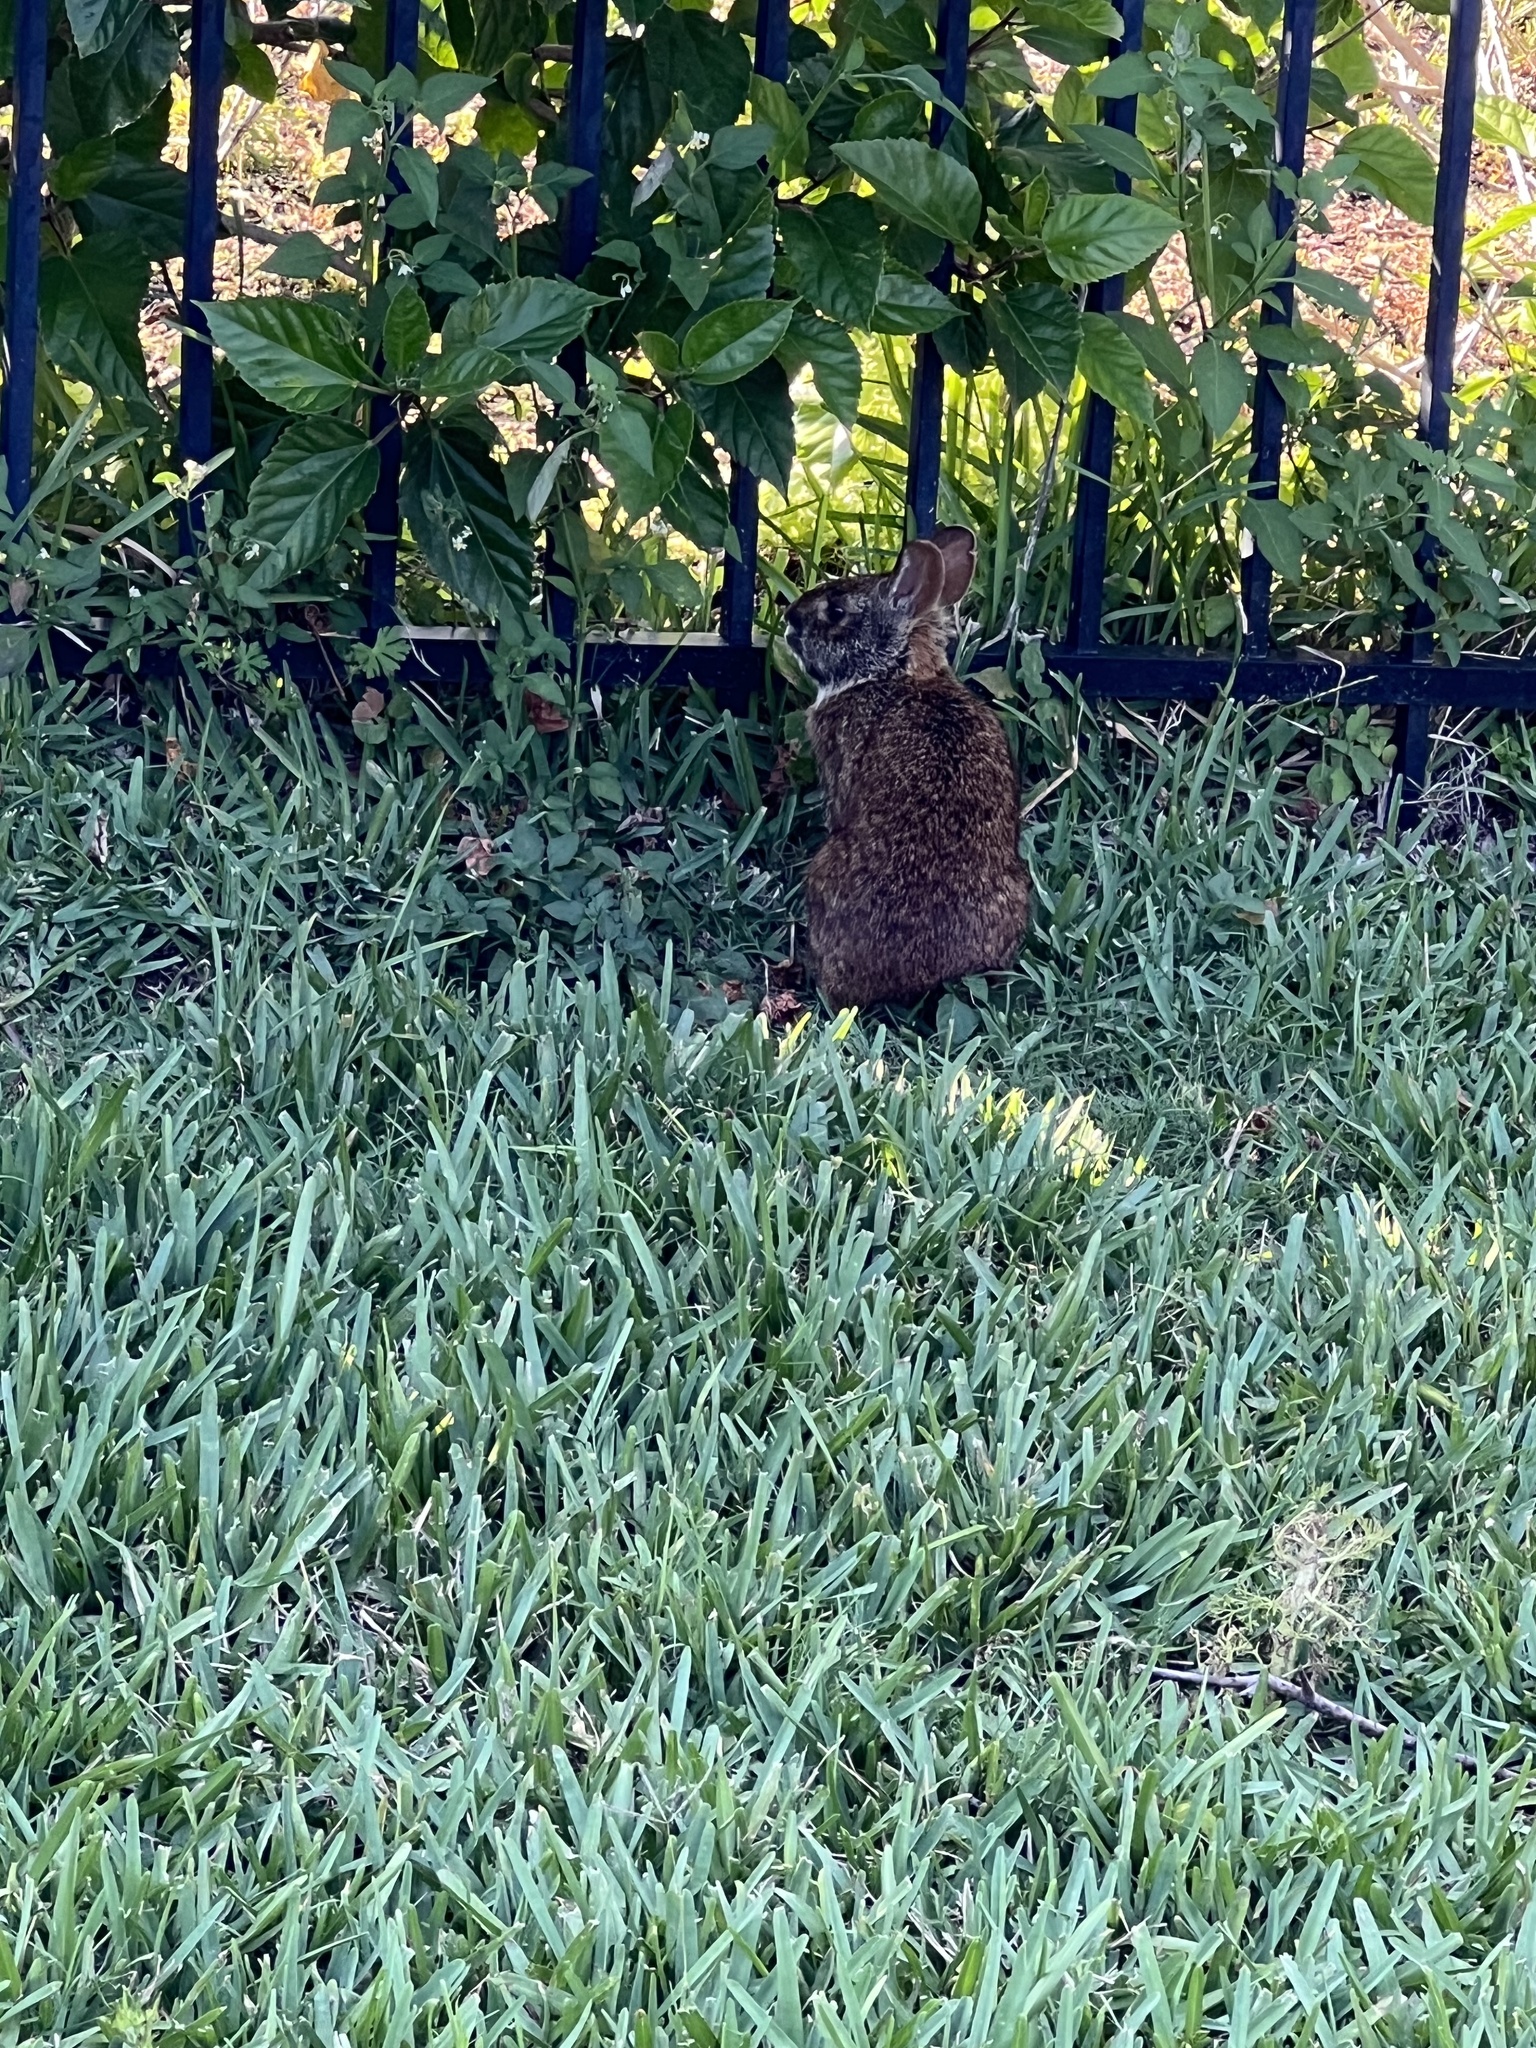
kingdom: Animalia
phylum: Chordata
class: Mammalia
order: Lagomorpha
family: Leporidae
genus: Sylvilagus
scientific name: Sylvilagus palustris
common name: Marsh rabbit
